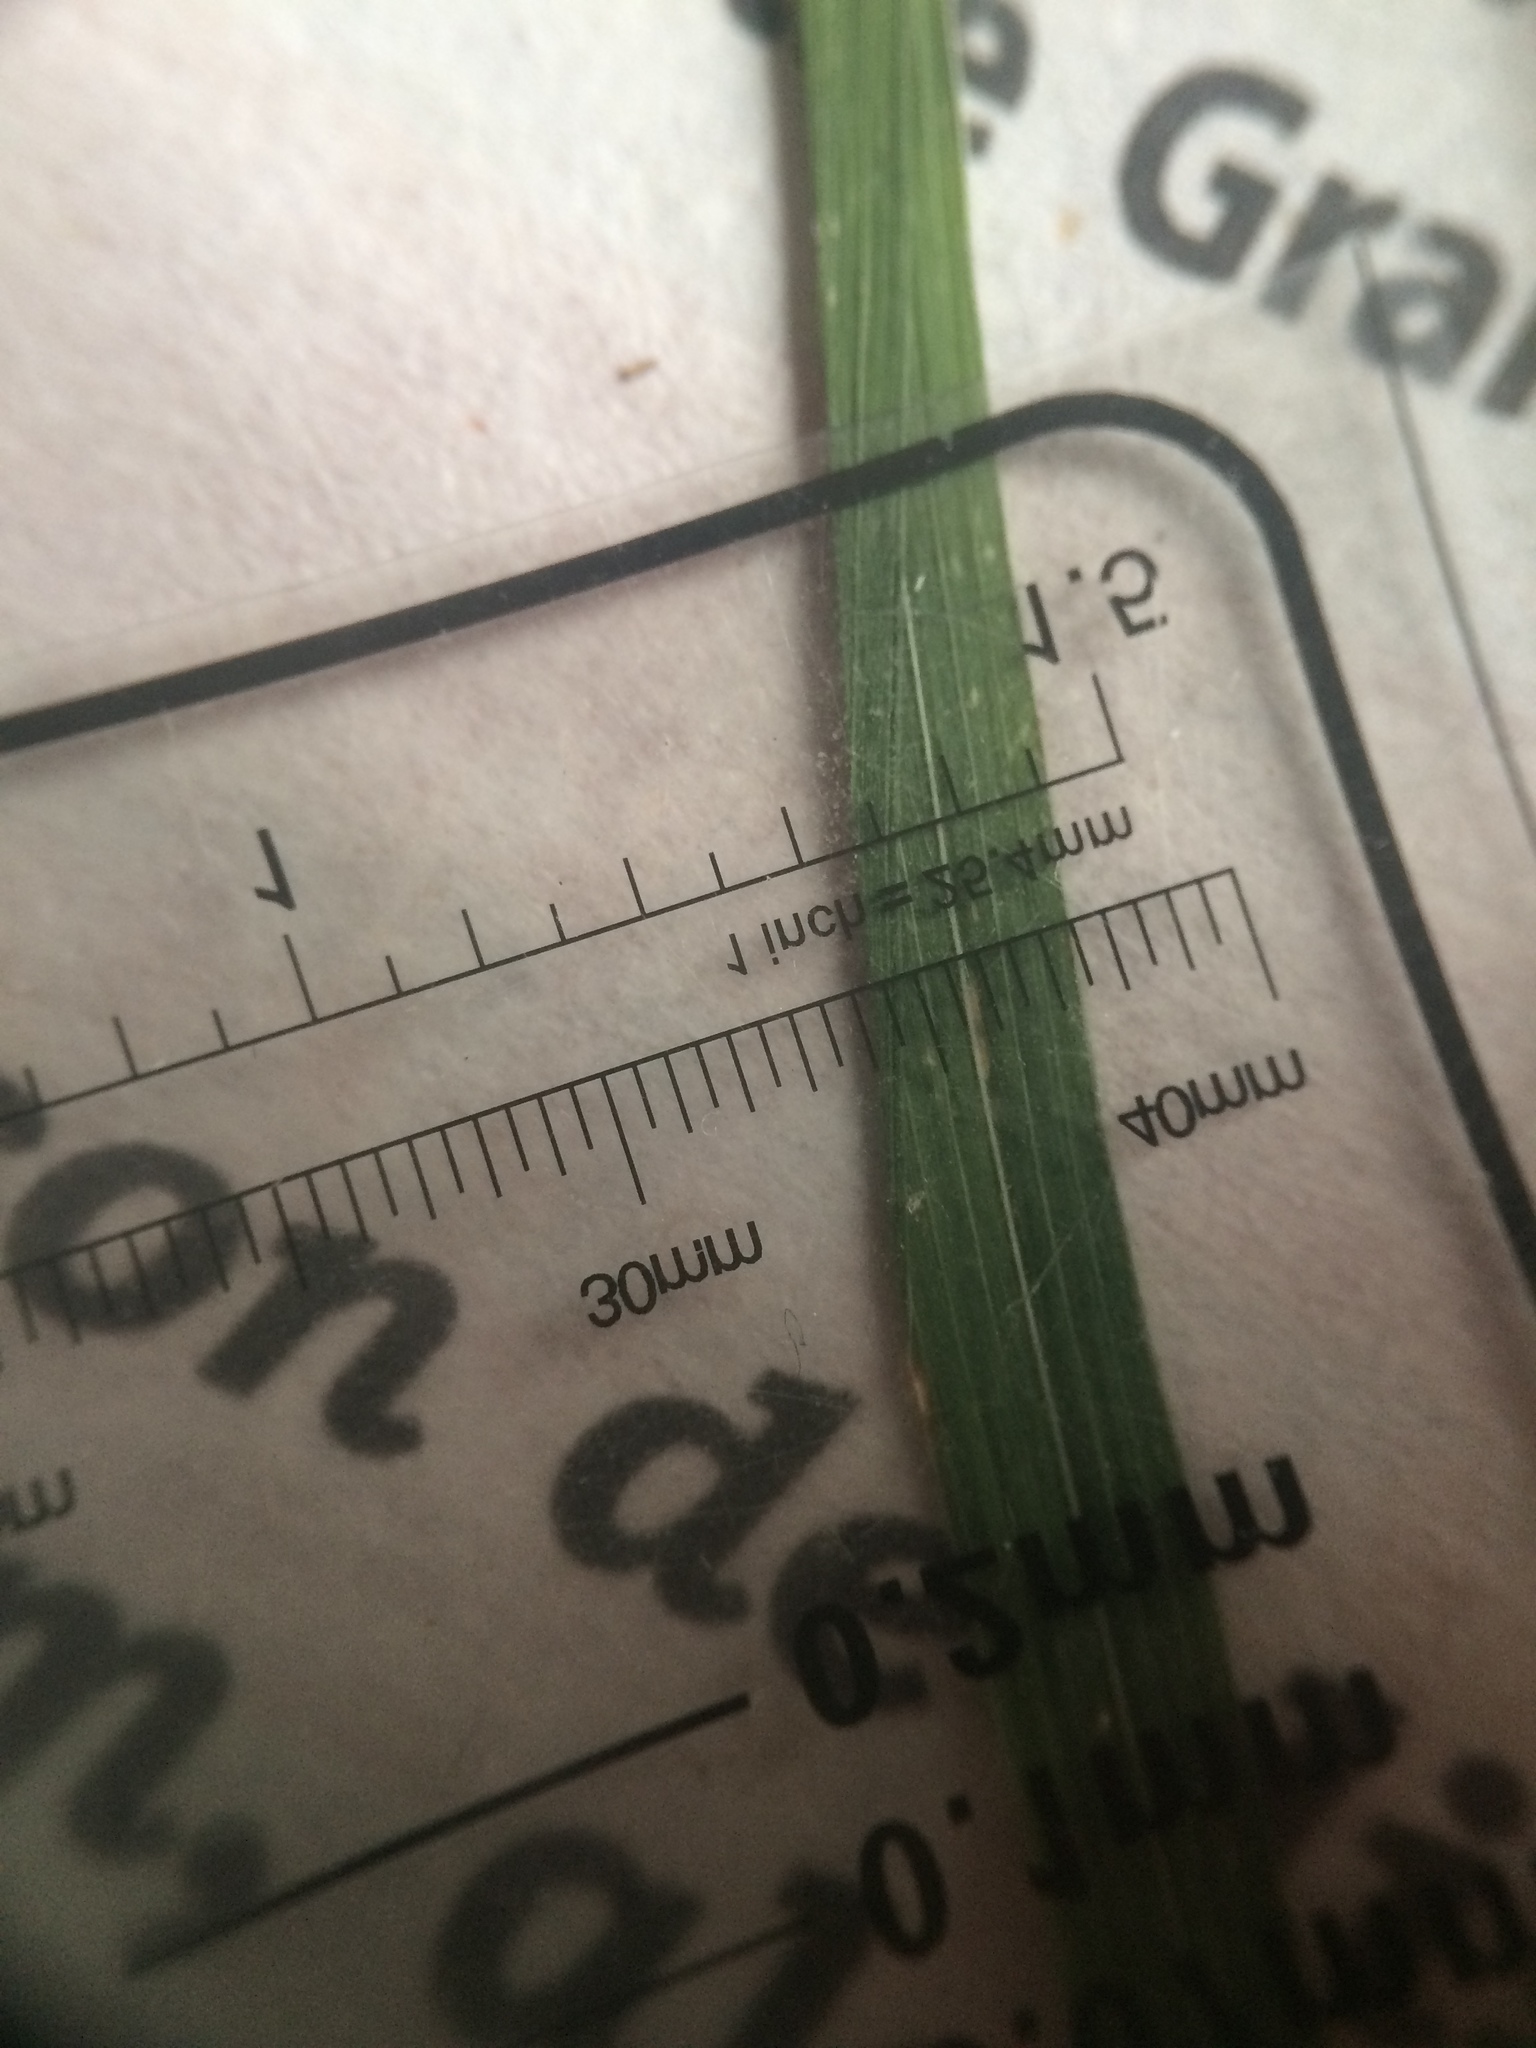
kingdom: Plantae
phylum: Tracheophyta
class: Liliopsida
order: Poales
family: Poaceae
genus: Muhlenbergia
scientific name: Muhlenbergia mexicana
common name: Mexican muhly
